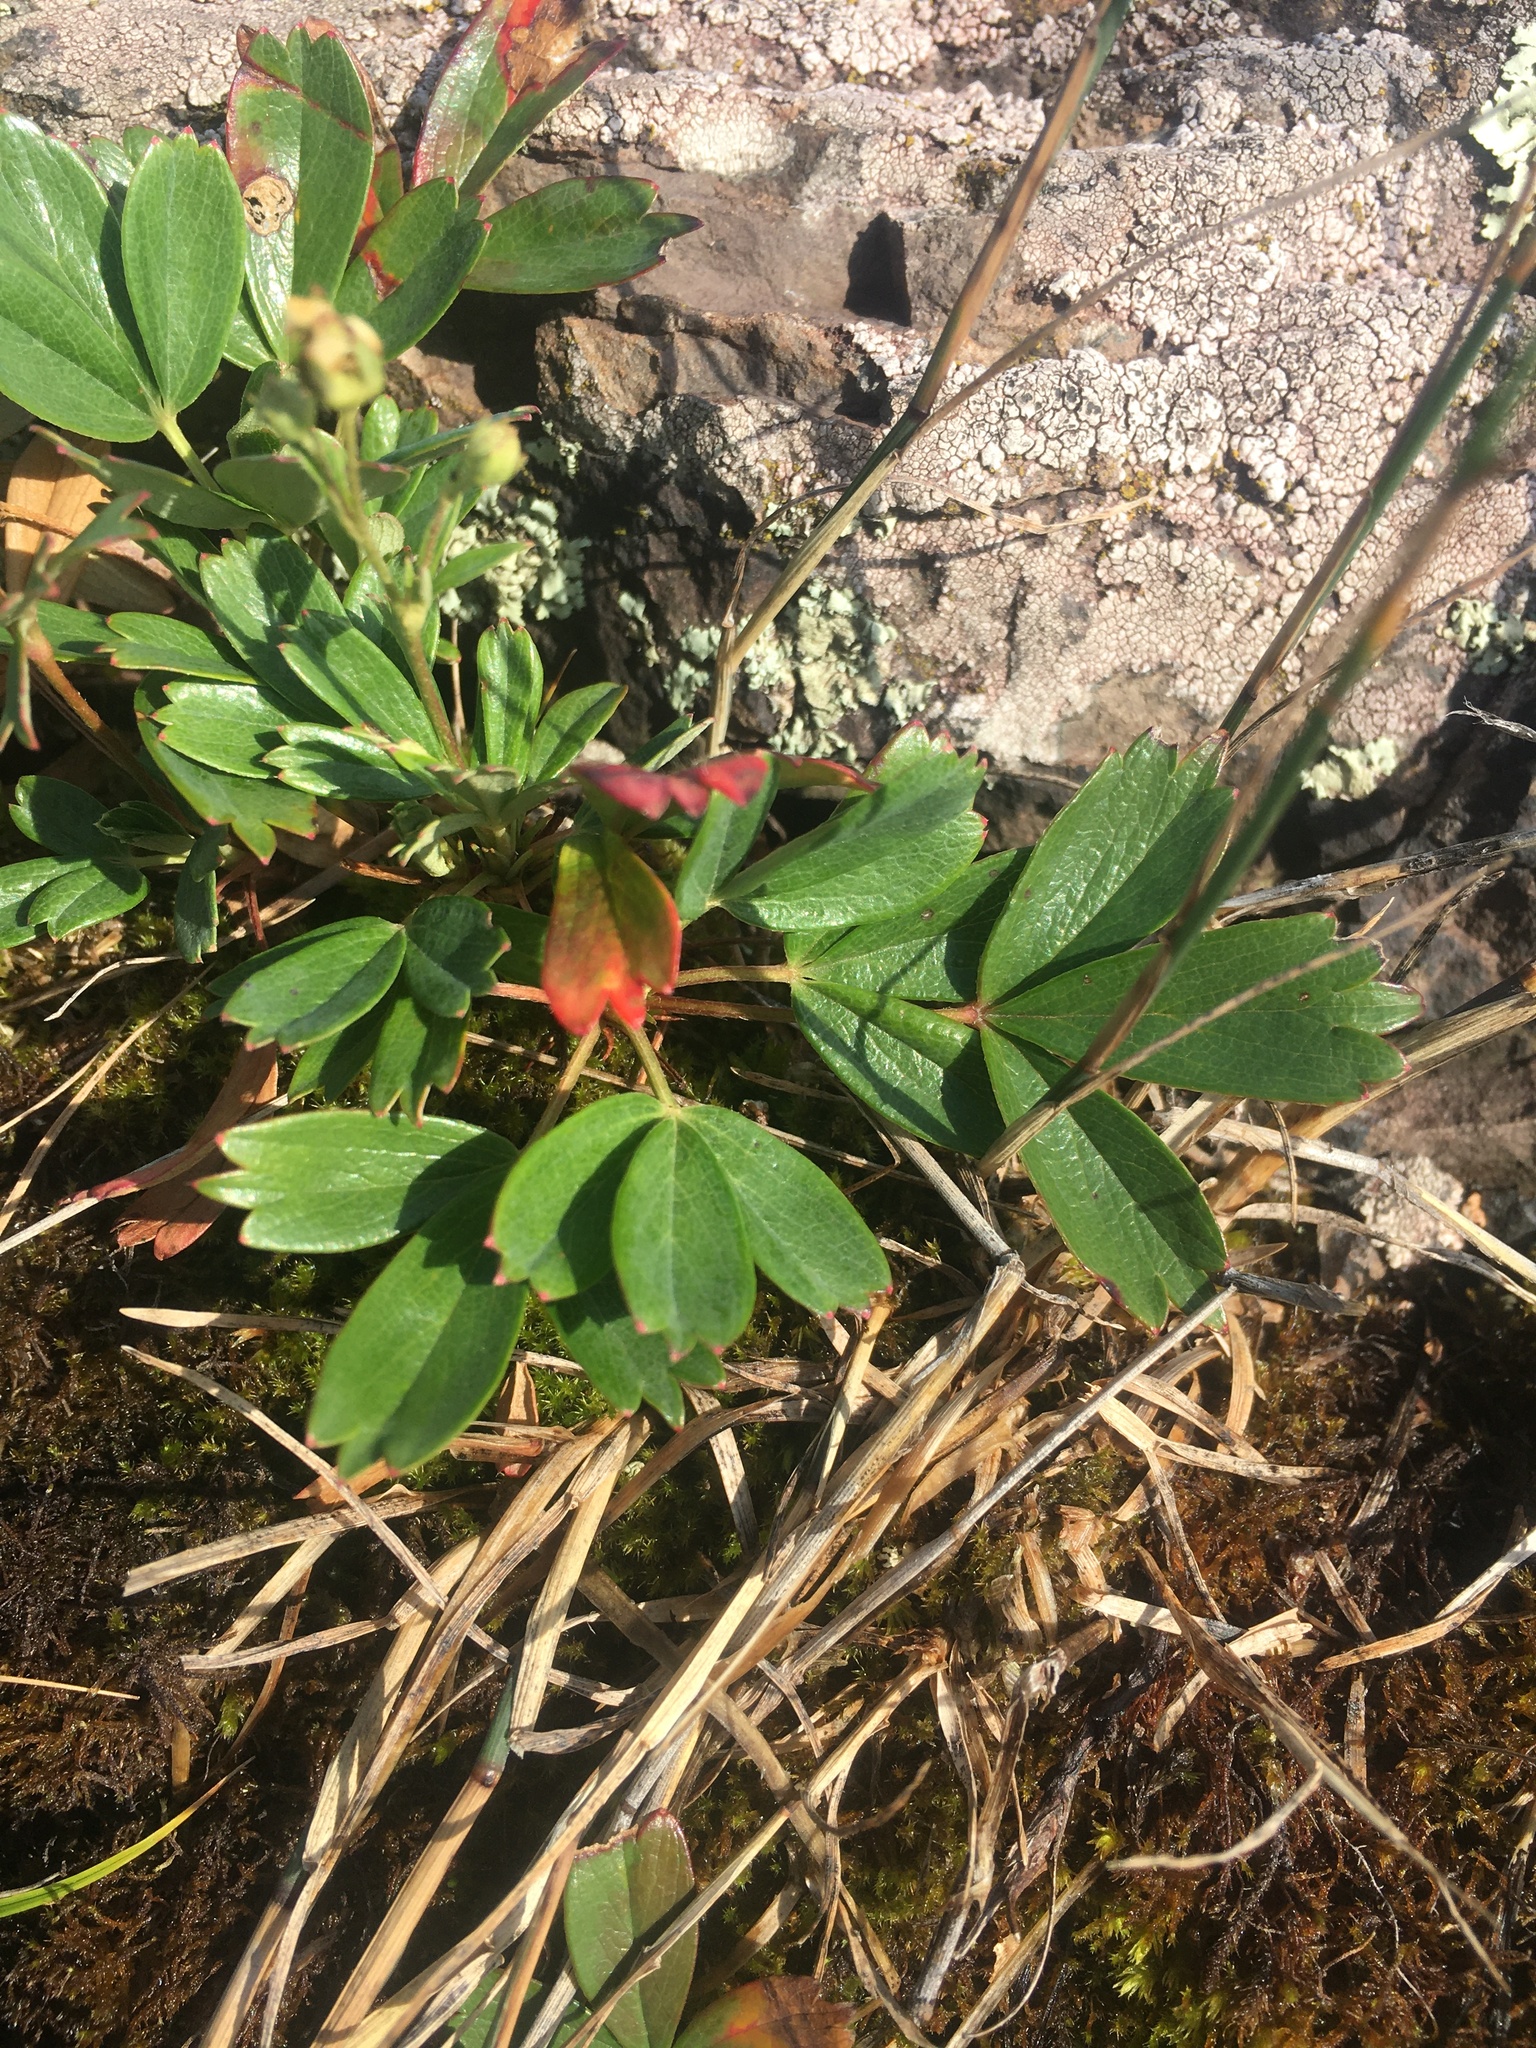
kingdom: Plantae
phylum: Tracheophyta
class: Magnoliopsida
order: Rosales
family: Rosaceae
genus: Sibbaldia
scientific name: Sibbaldia tridentata
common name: Three-toothed cinquefoil
